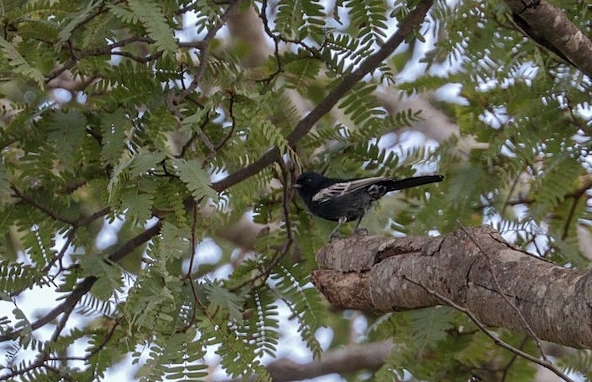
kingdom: Animalia
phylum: Chordata
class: Aves
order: Passeriformes
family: Paridae
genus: Parus
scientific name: Parus niger
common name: Southern black tit
